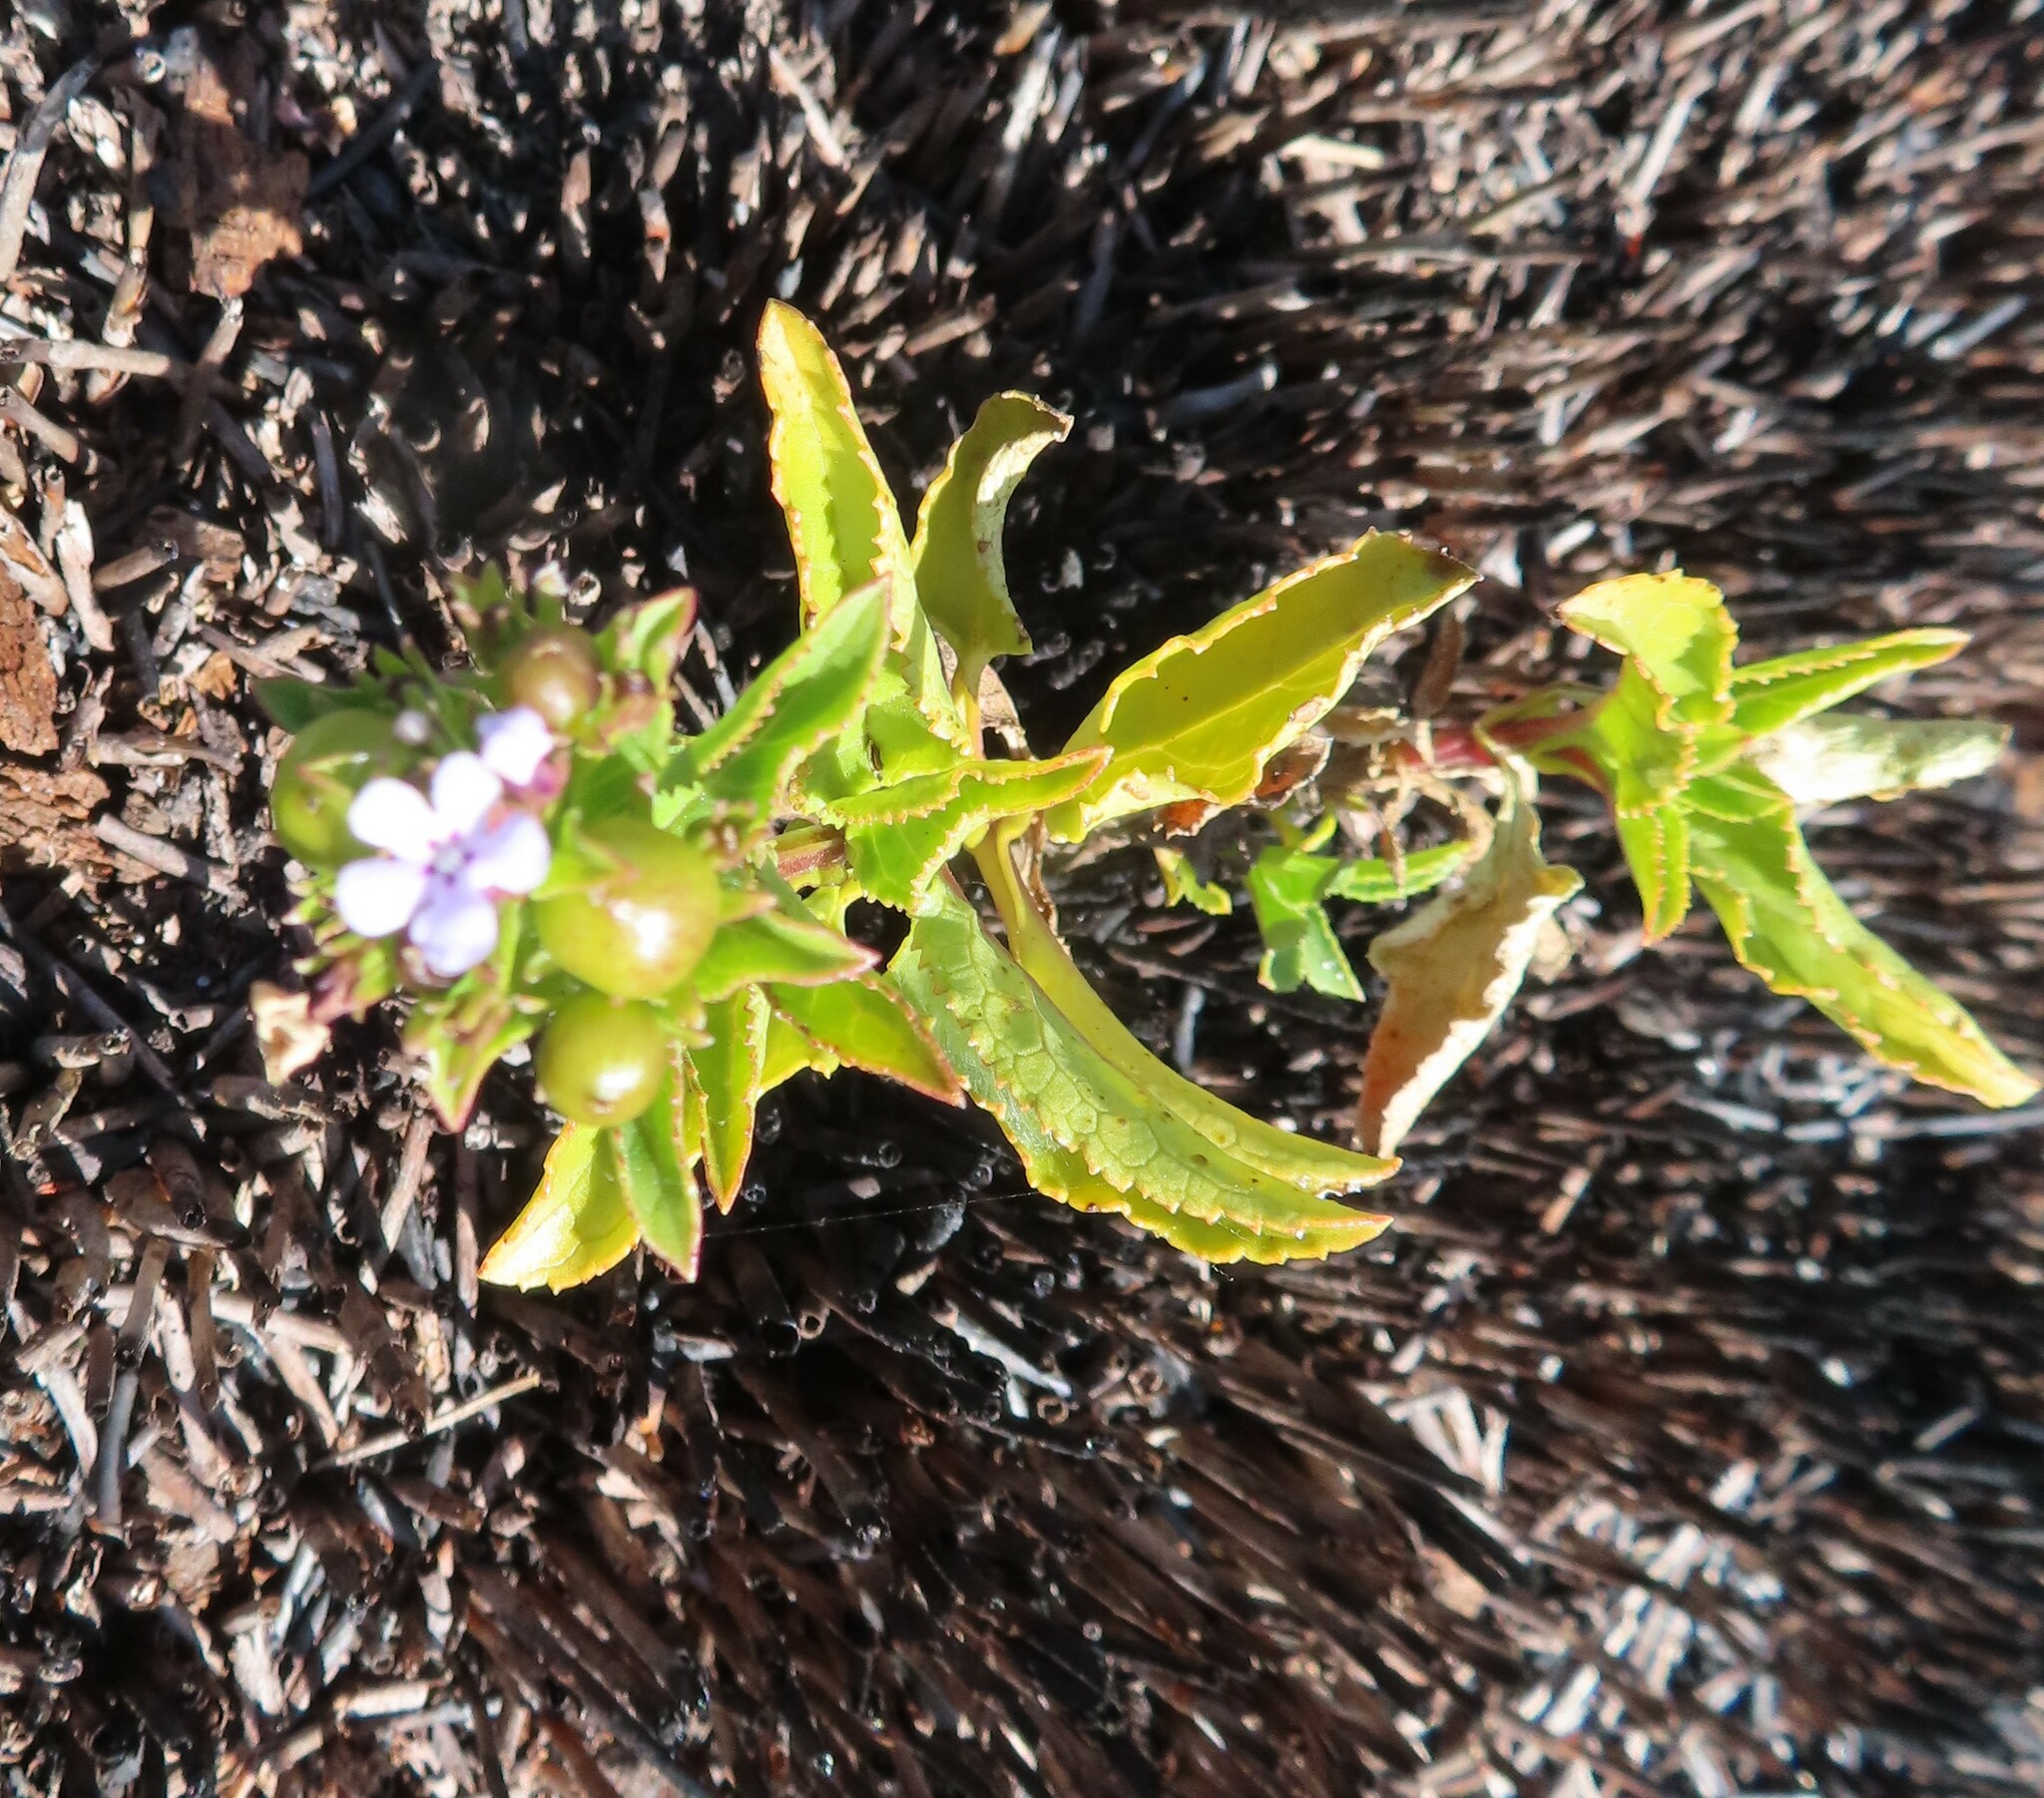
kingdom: Plantae
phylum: Tracheophyta
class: Magnoliopsida
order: Lamiales
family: Scrophulariaceae
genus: Teedia
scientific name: Teedia lucida
